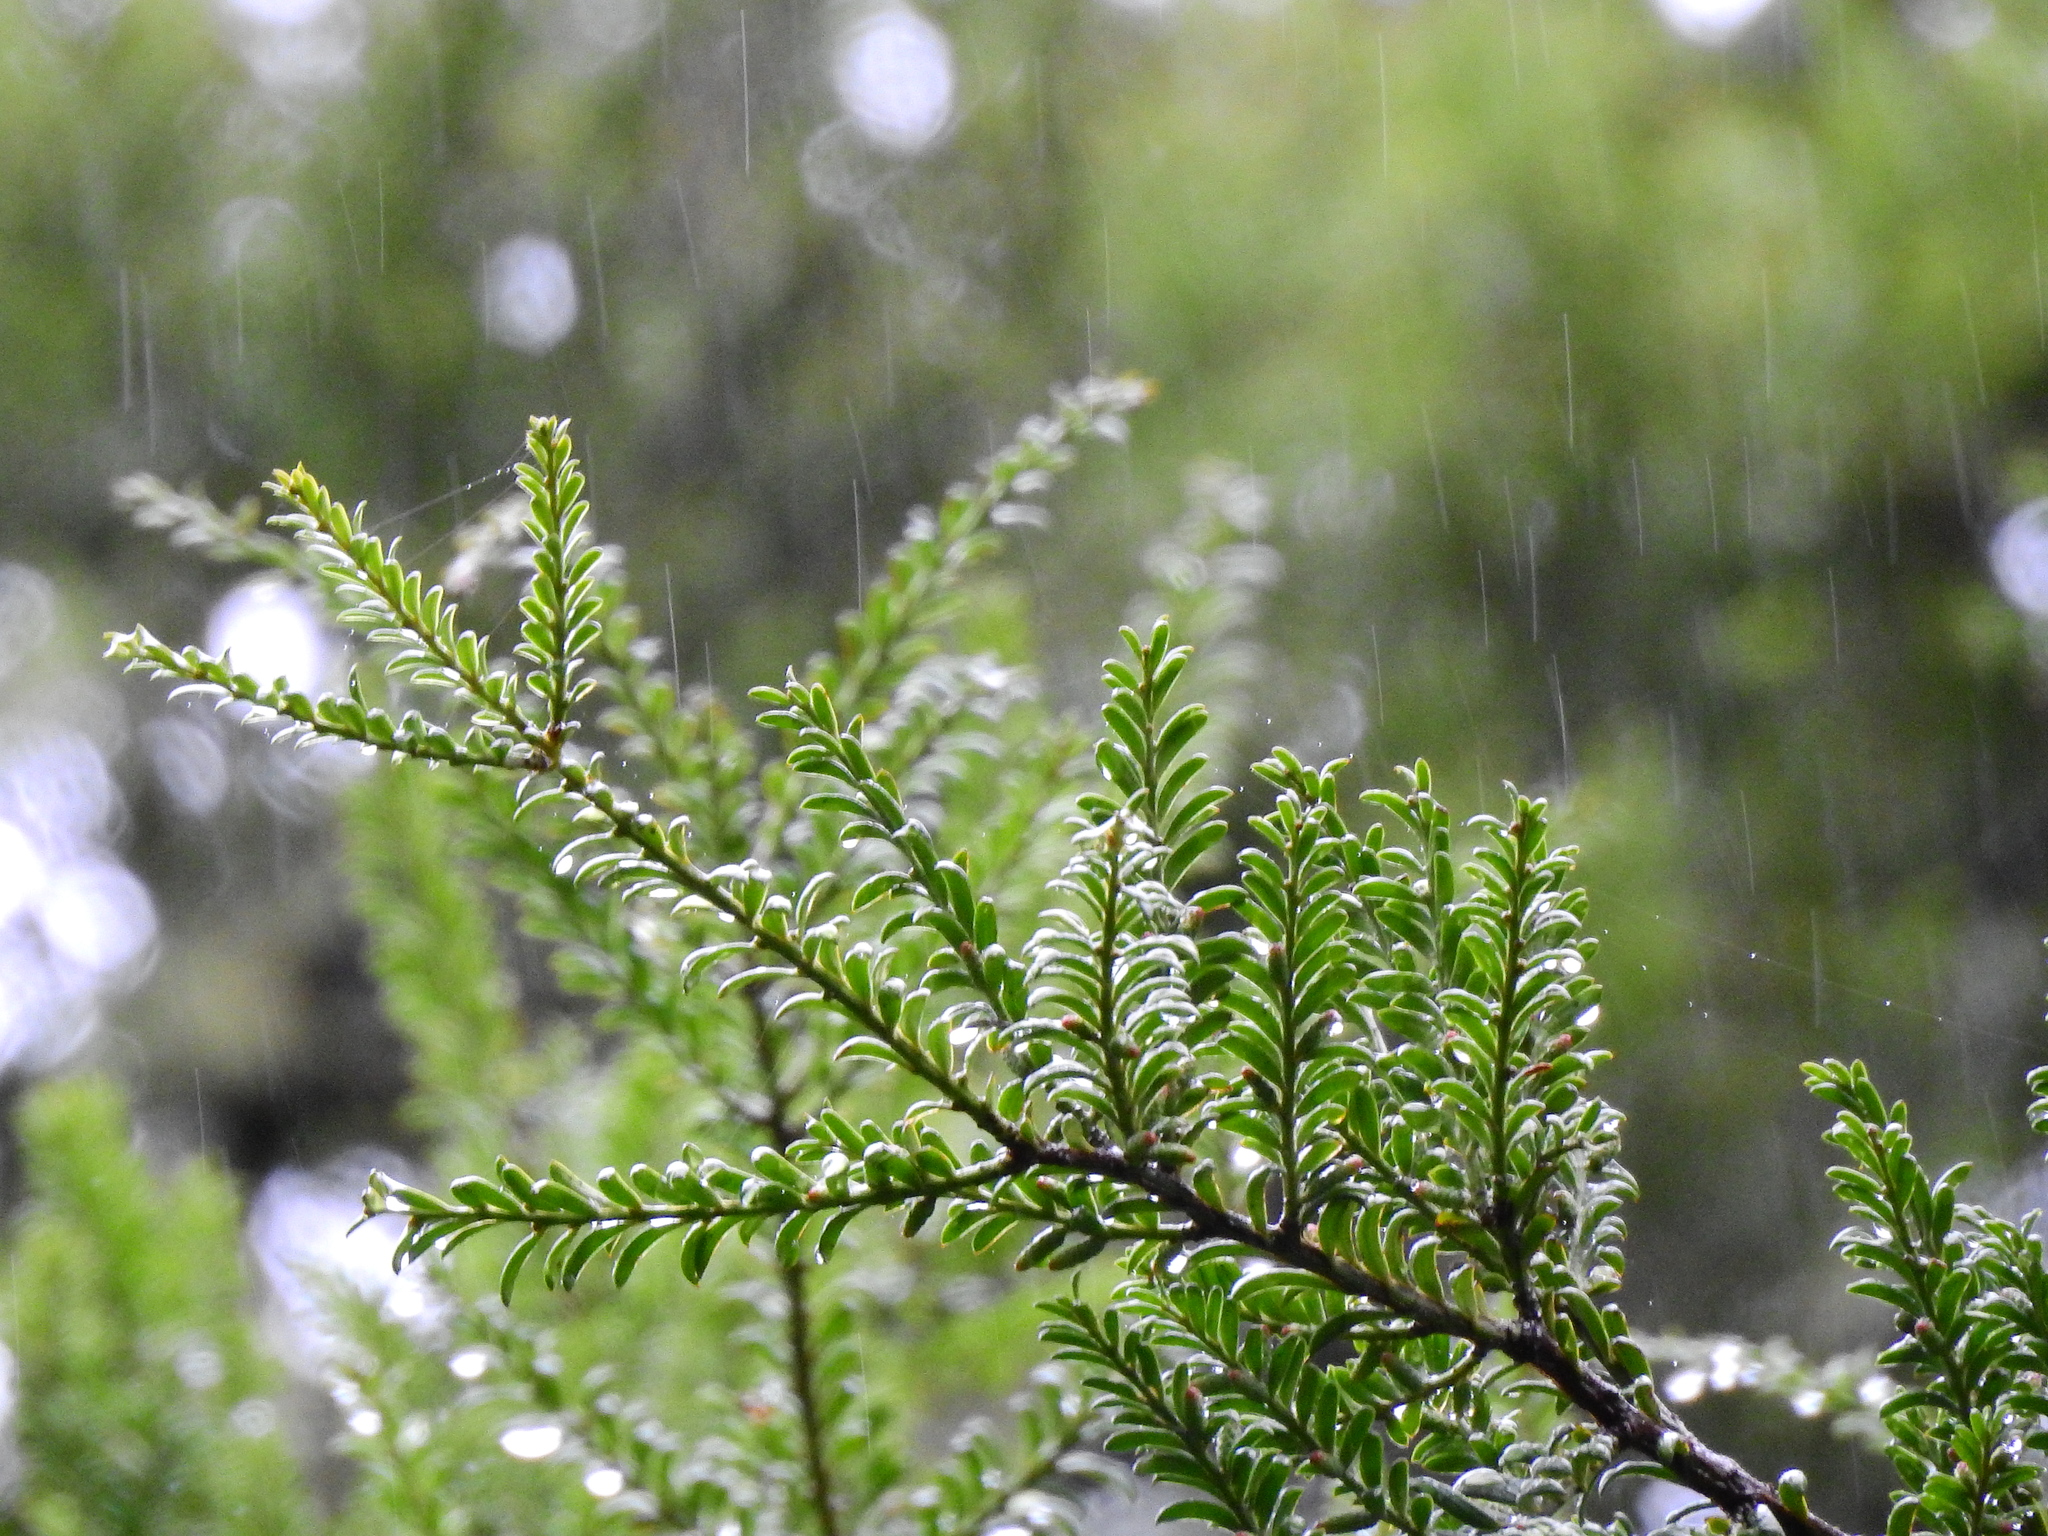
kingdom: Plantae
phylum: Tracheophyta
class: Pinopsida
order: Pinales
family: Podocarpaceae
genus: Prumnopitys
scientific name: Prumnopitys ferruginea
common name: Brown pine
